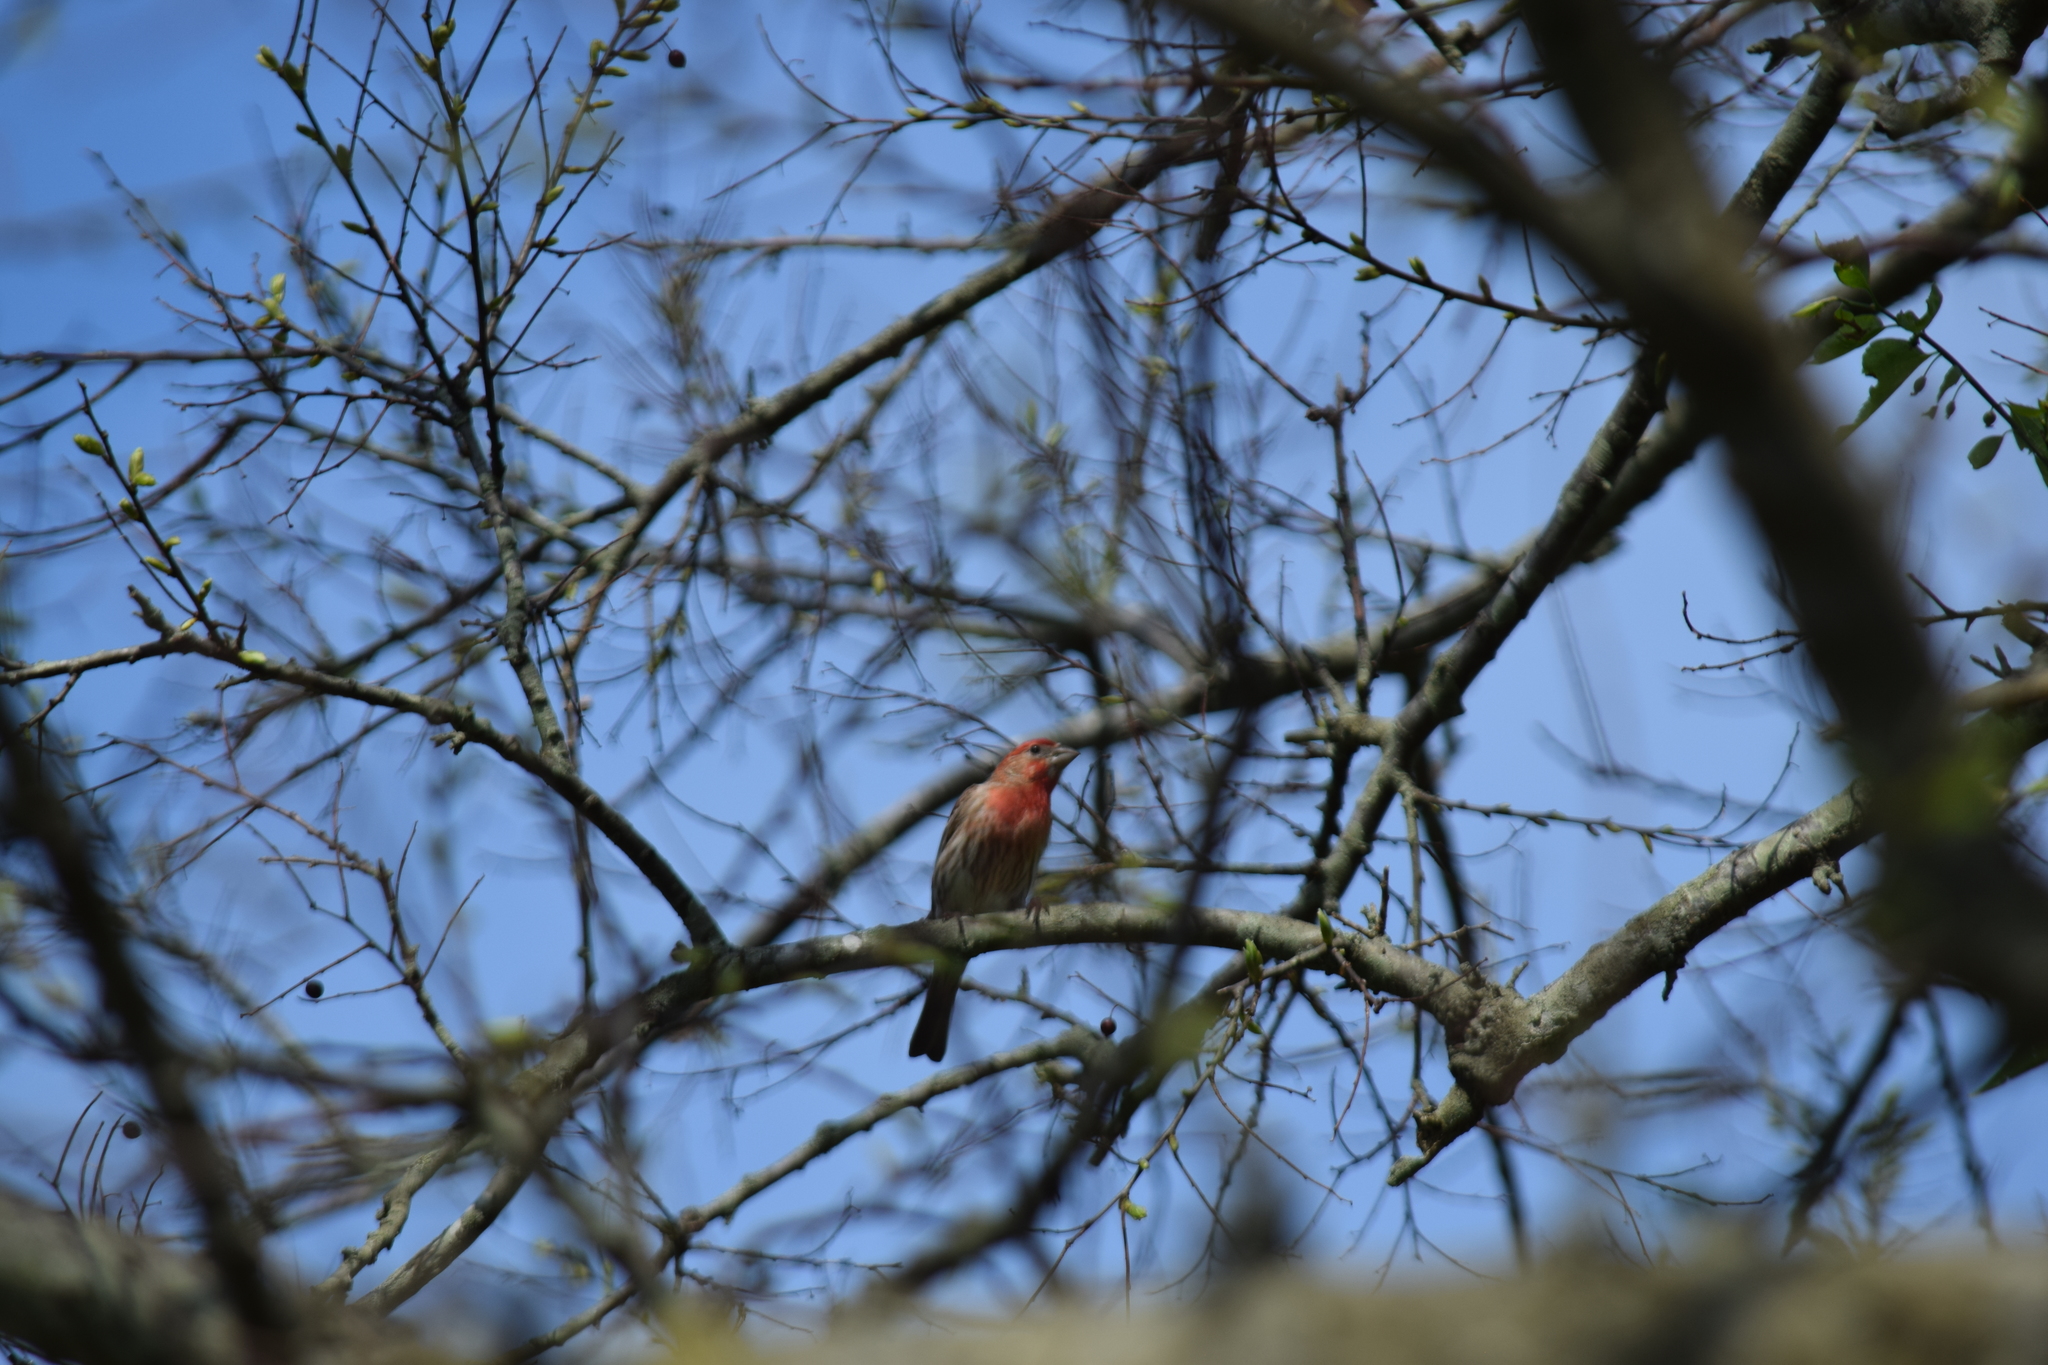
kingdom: Animalia
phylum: Chordata
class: Aves
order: Passeriformes
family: Fringillidae
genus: Haemorhous
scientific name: Haemorhous mexicanus
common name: House finch
